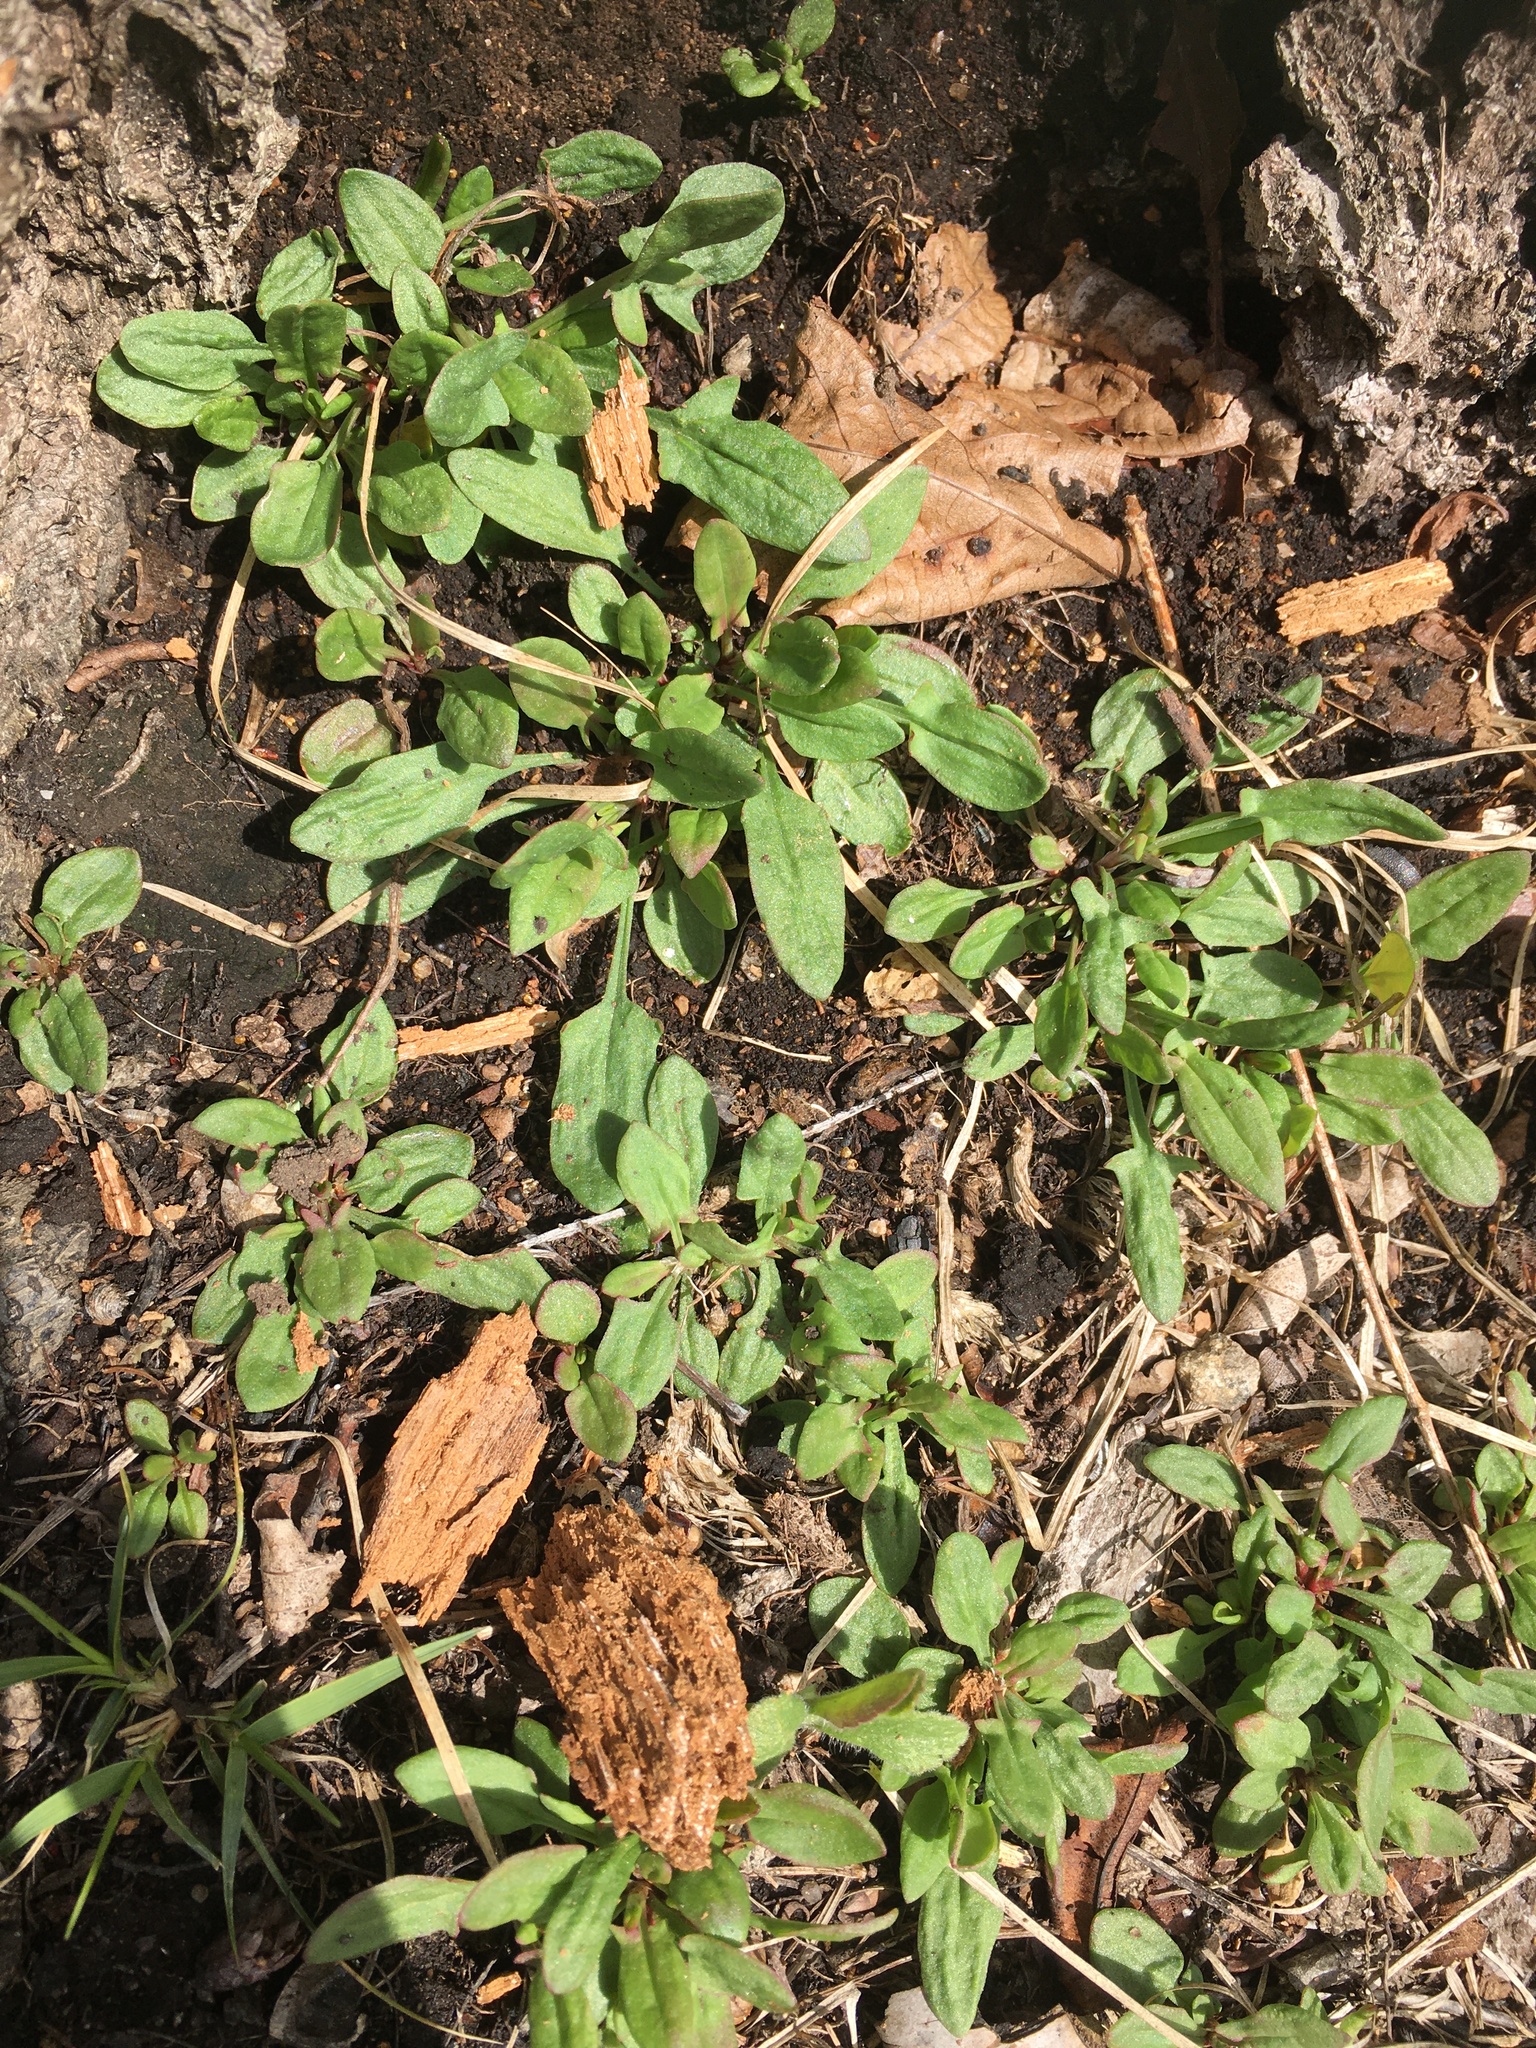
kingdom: Plantae
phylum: Tracheophyta
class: Magnoliopsida
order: Caryophyllales
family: Polygonaceae
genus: Rumex
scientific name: Rumex acetosella
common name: Common sheep sorrel
